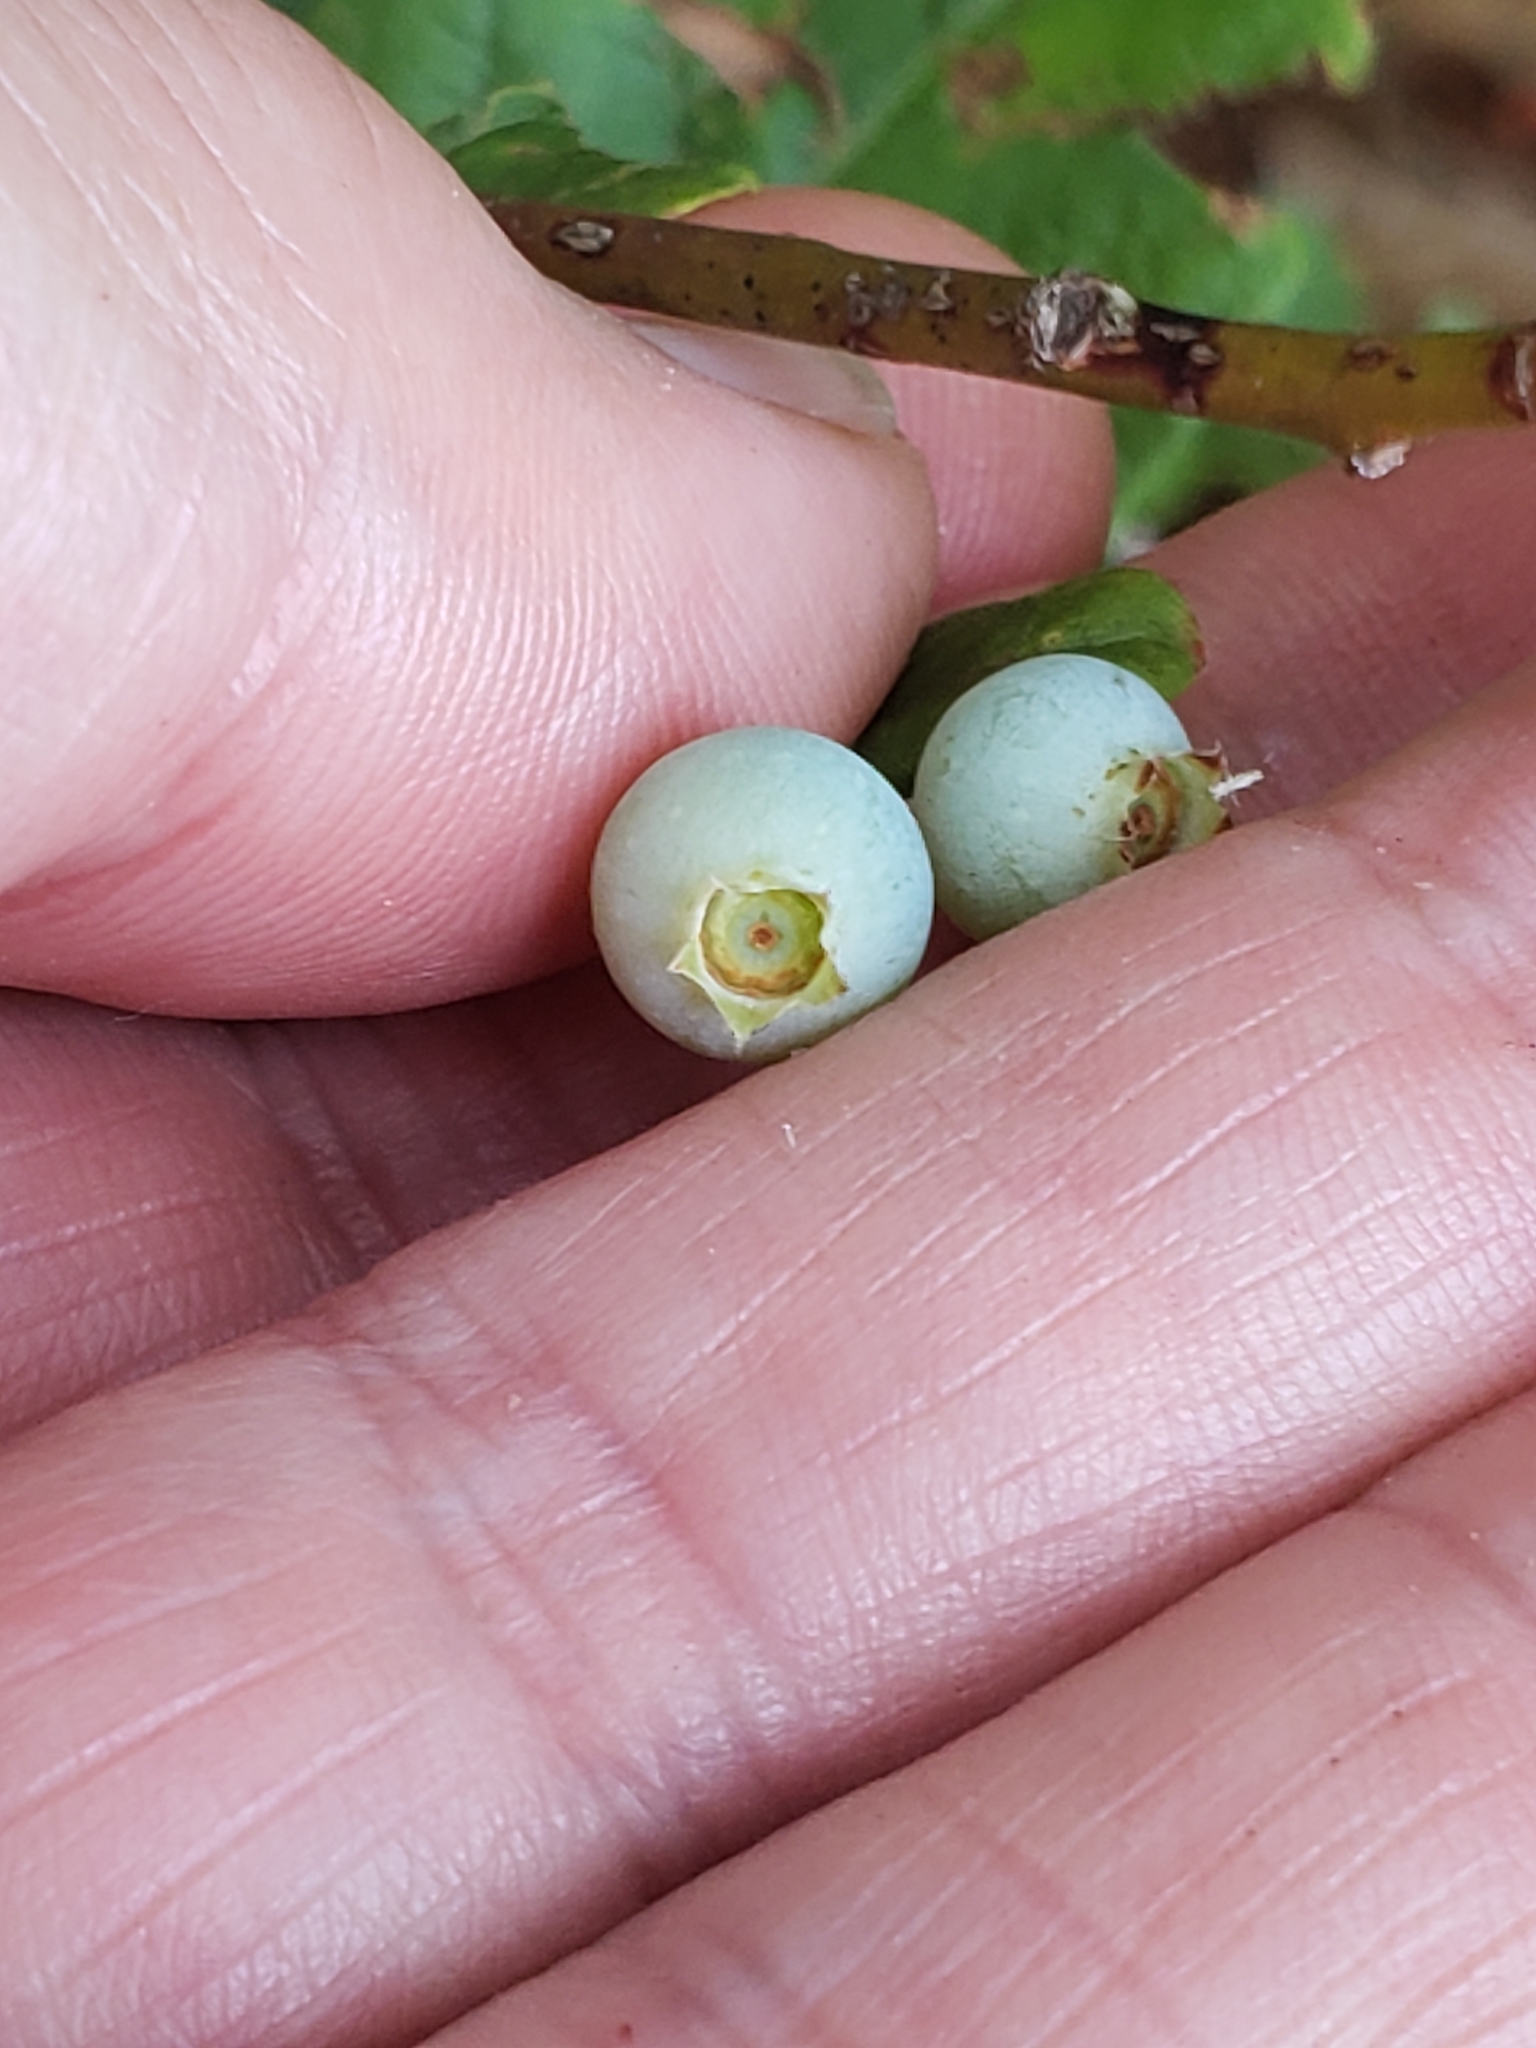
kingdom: Plantae
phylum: Tracheophyta
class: Magnoliopsida
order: Ericales
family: Ericaceae
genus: Vaccinium
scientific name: Vaccinium stamineum
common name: Deerberry
